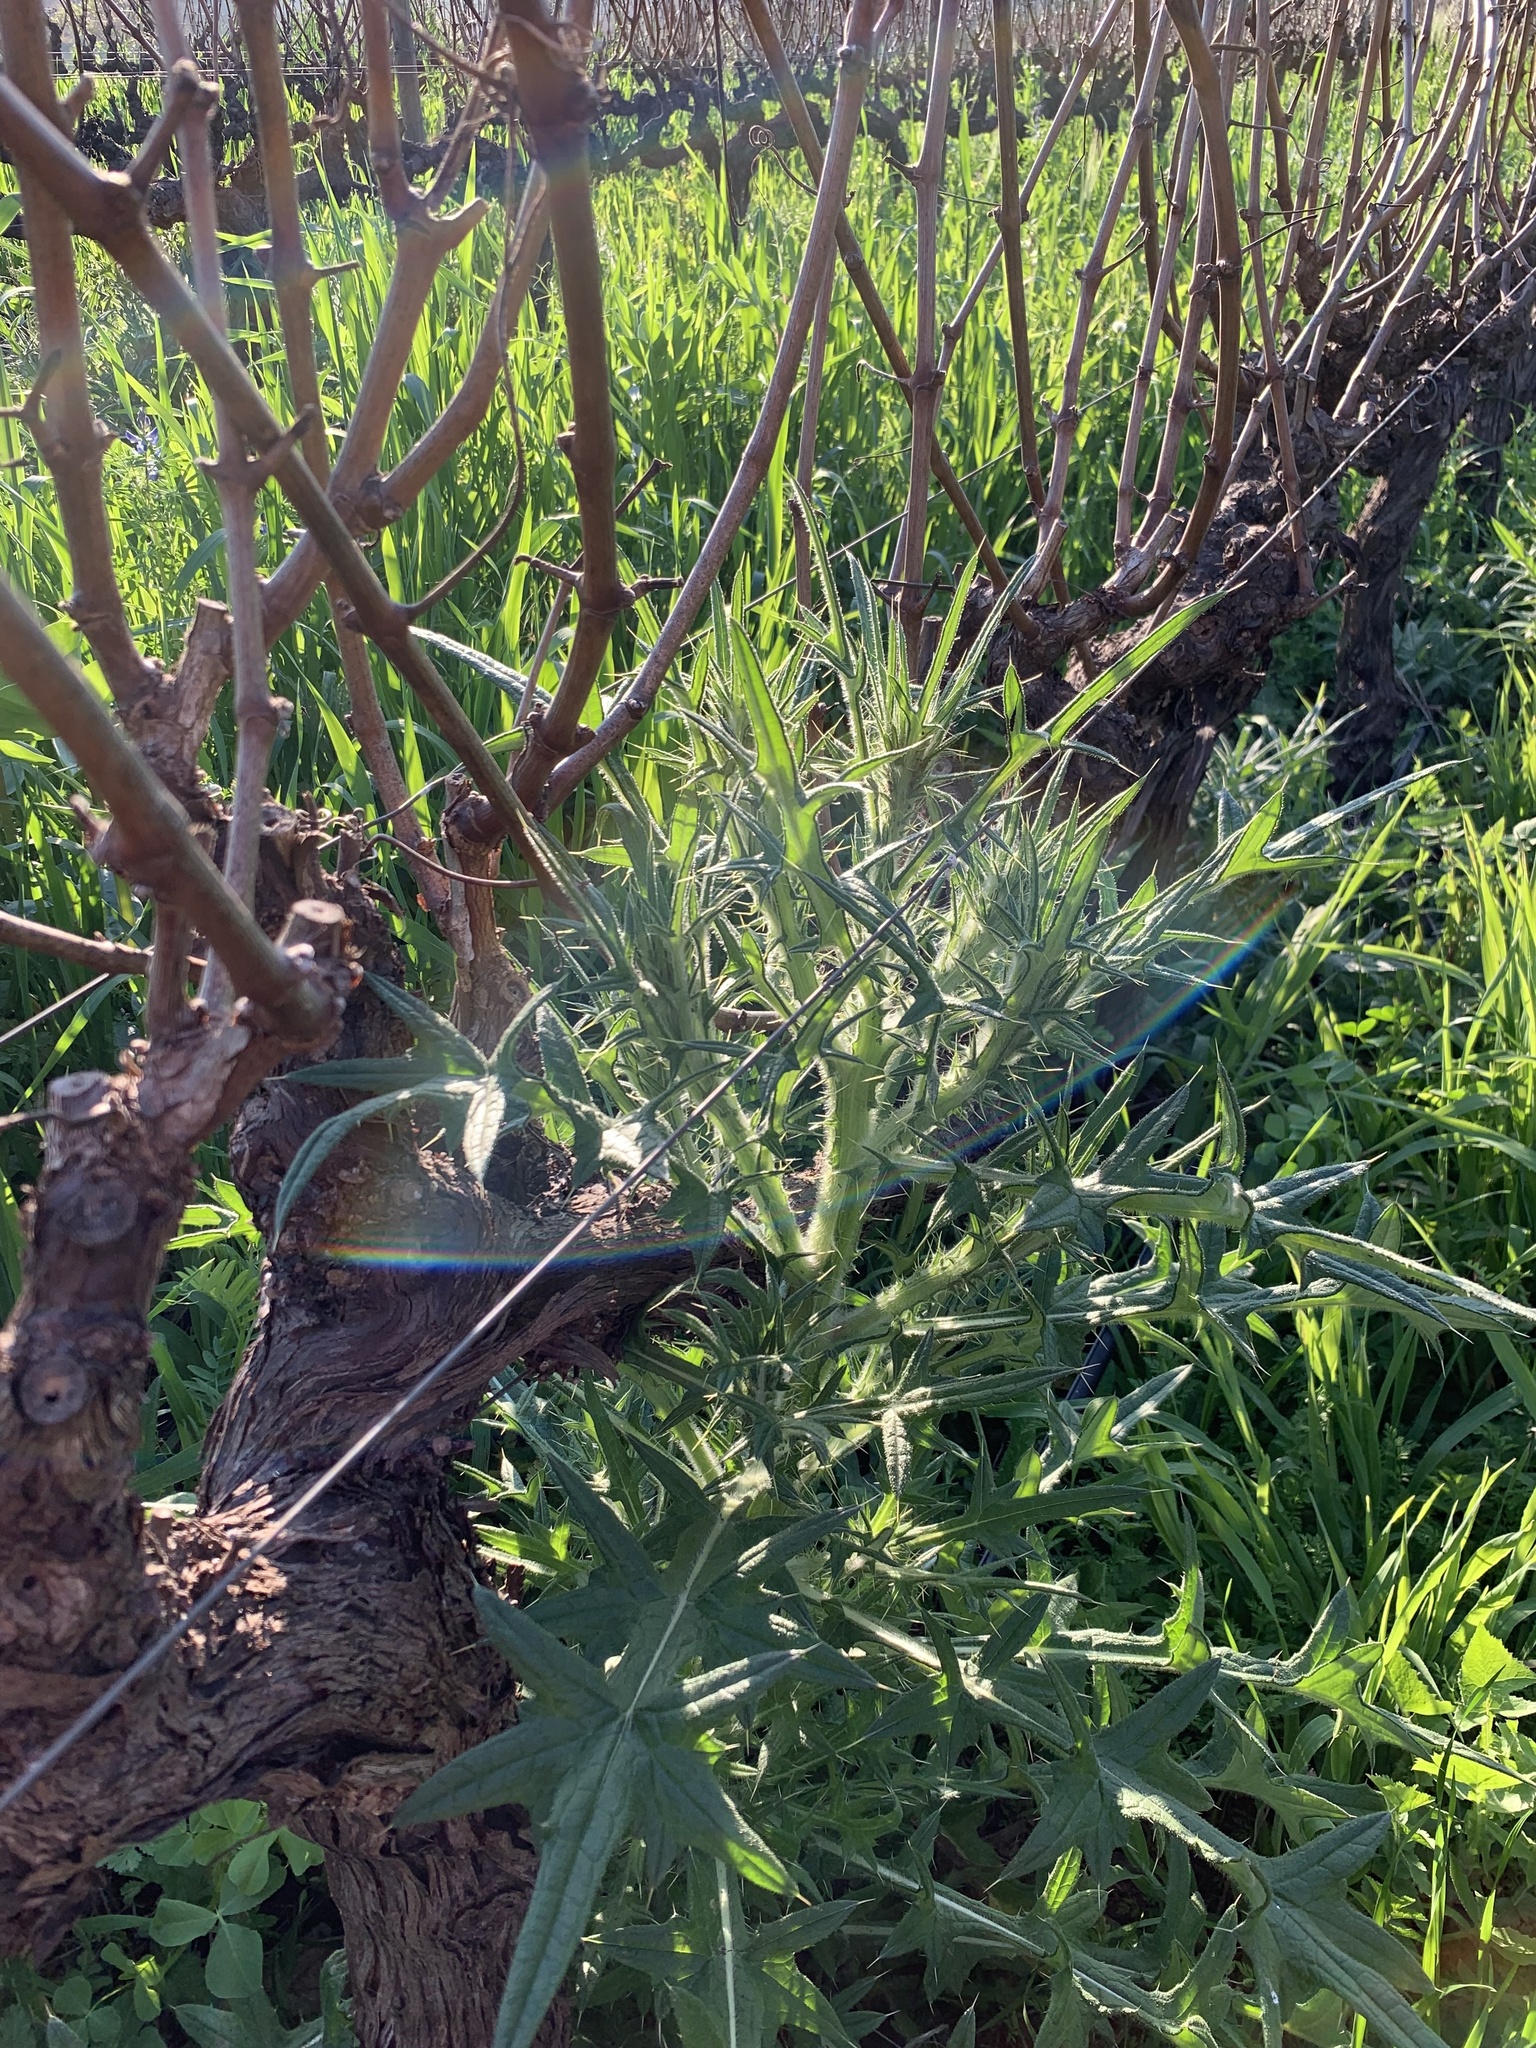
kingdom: Plantae
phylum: Tracheophyta
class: Magnoliopsida
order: Asterales
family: Asteraceae
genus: Cirsium
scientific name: Cirsium vulgare
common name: Bull thistle
